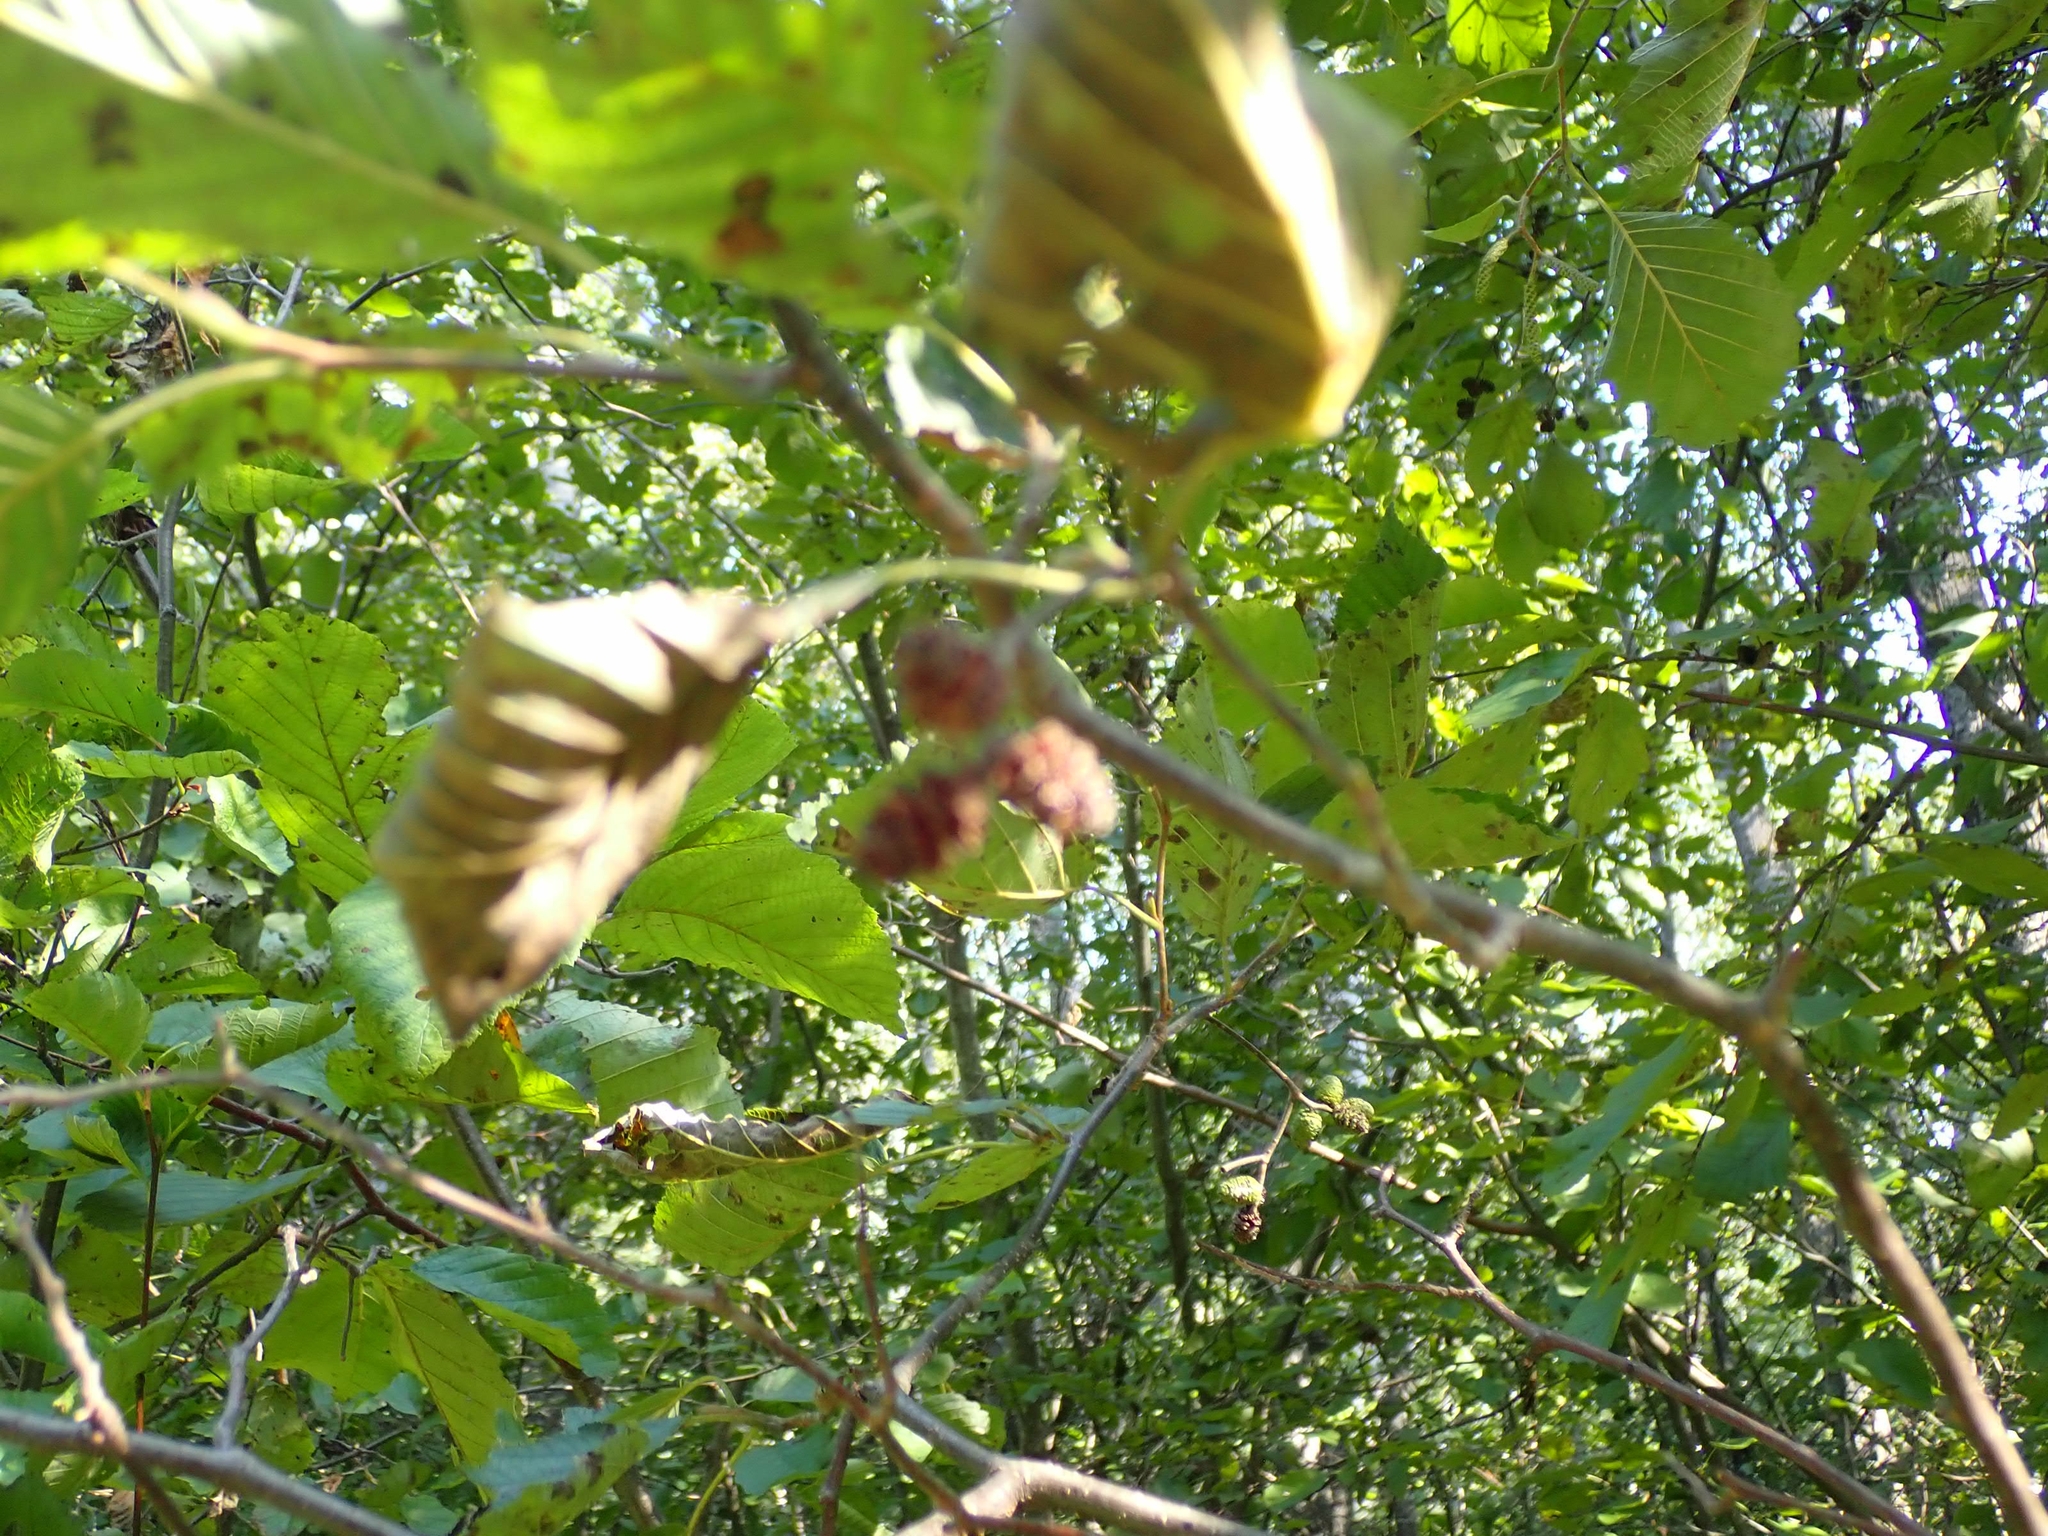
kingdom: Plantae
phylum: Tracheophyta
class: Magnoliopsida
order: Fagales
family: Betulaceae
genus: Alnus
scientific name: Alnus incana
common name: Grey alder
